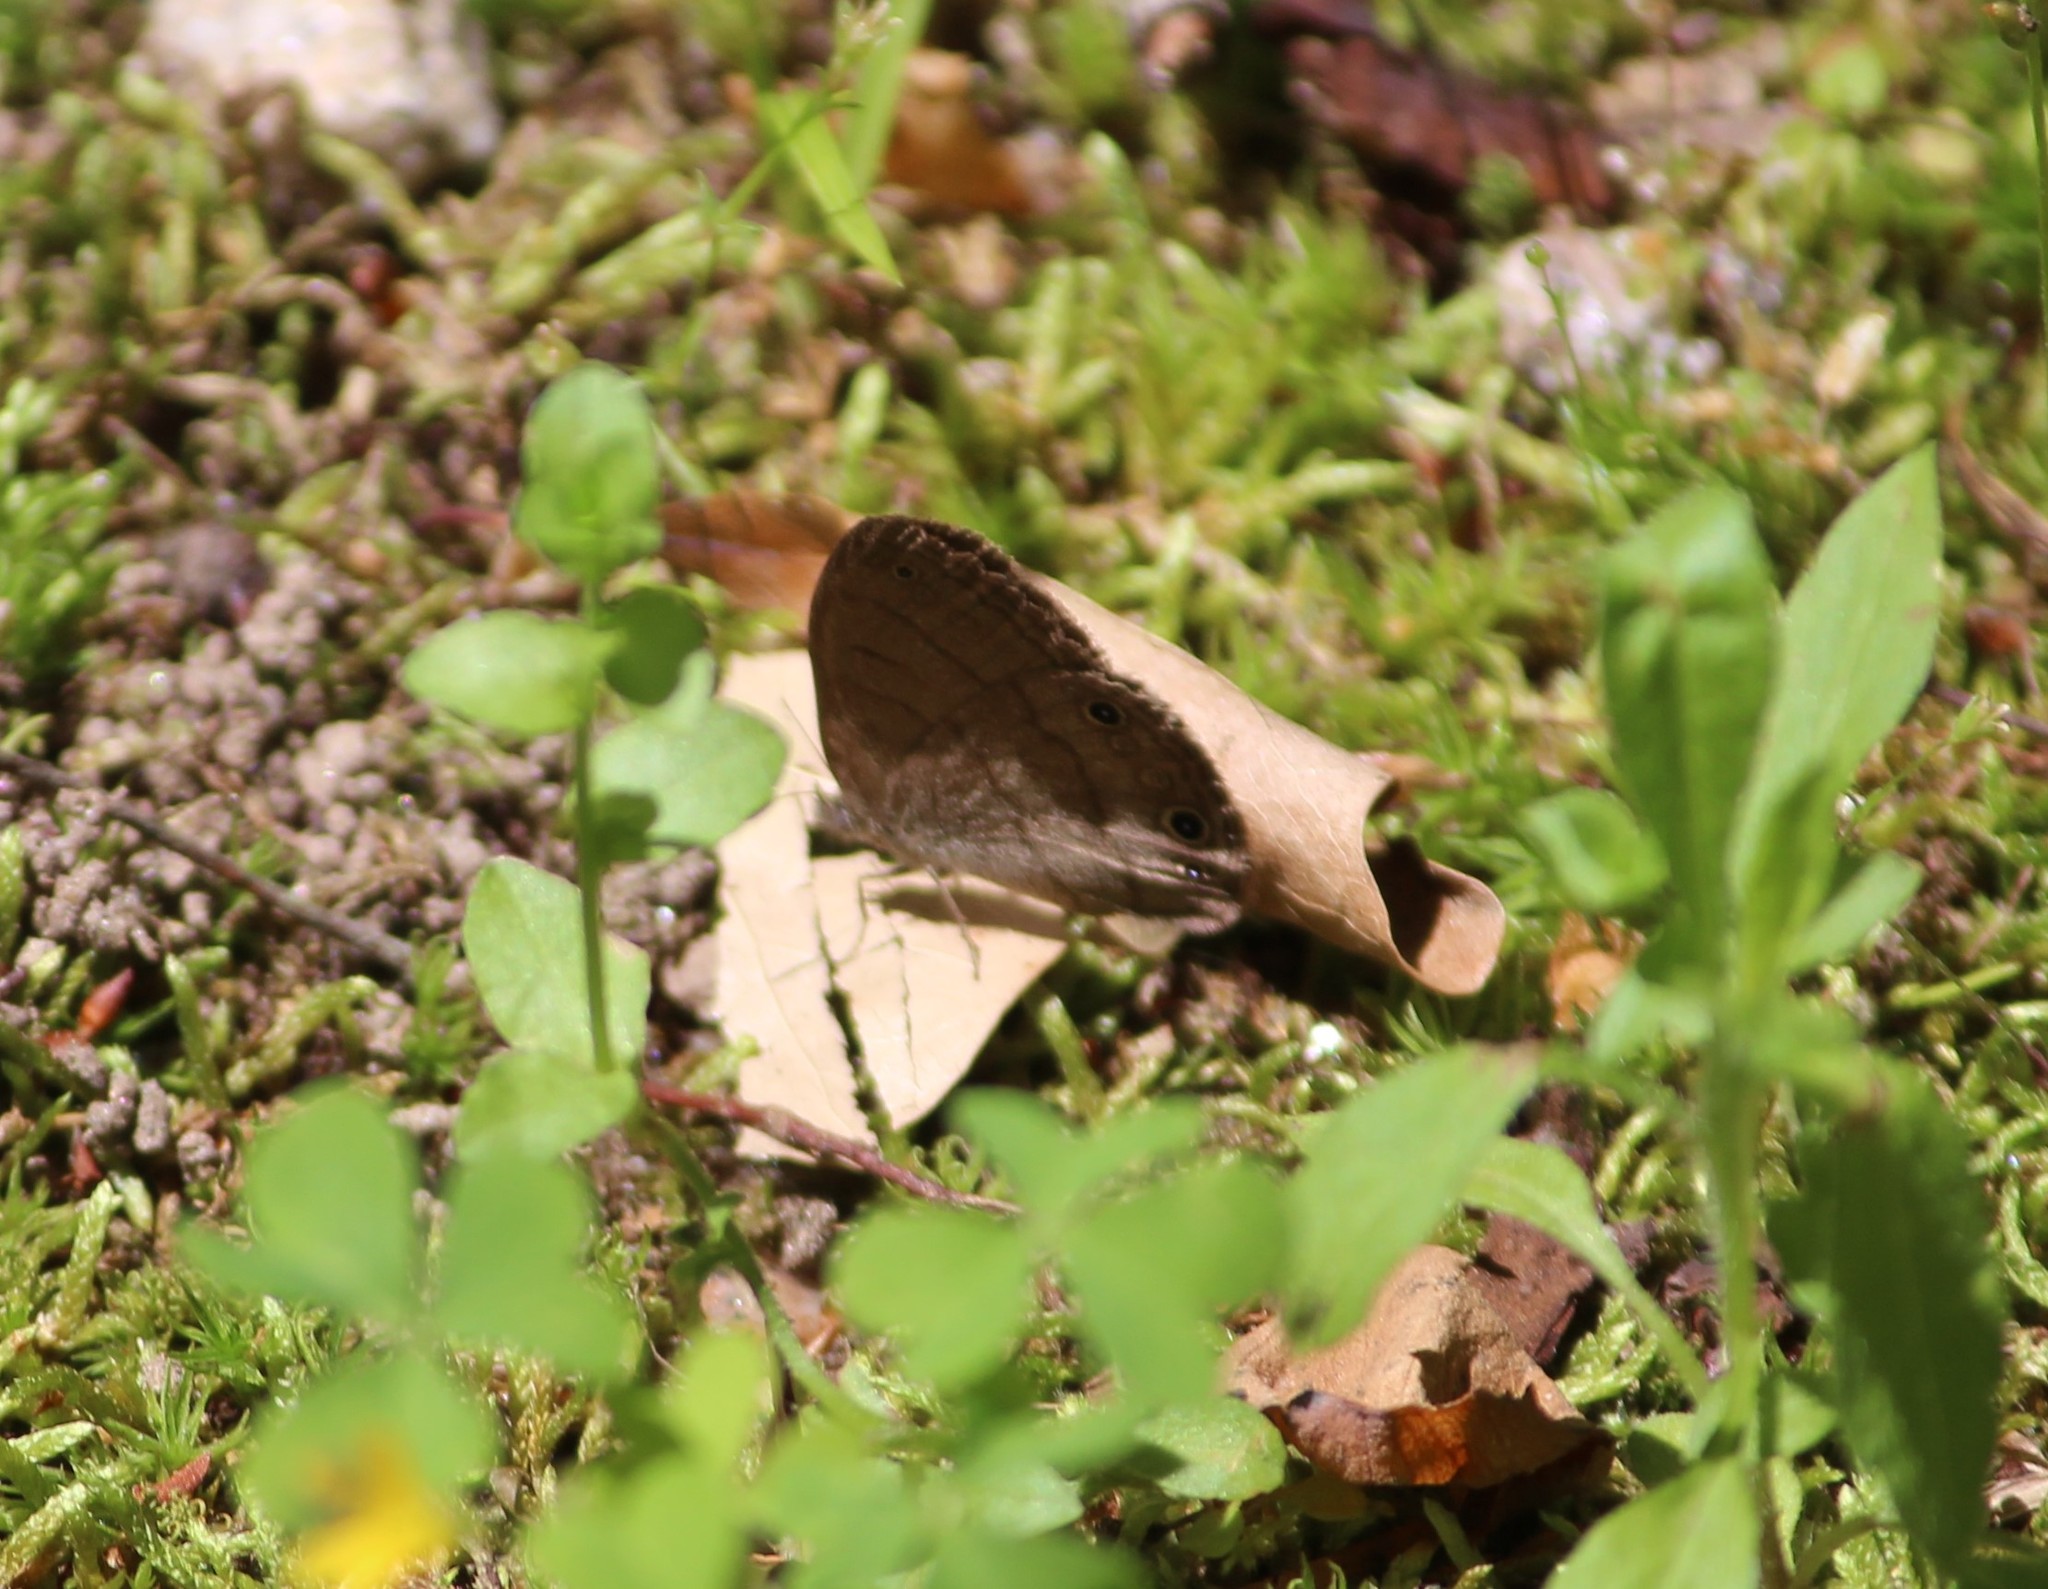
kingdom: Animalia
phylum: Arthropoda
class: Insecta
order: Lepidoptera
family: Nymphalidae
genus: Hermeuptychia
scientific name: Hermeuptychia hermes
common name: Hermes satyr
